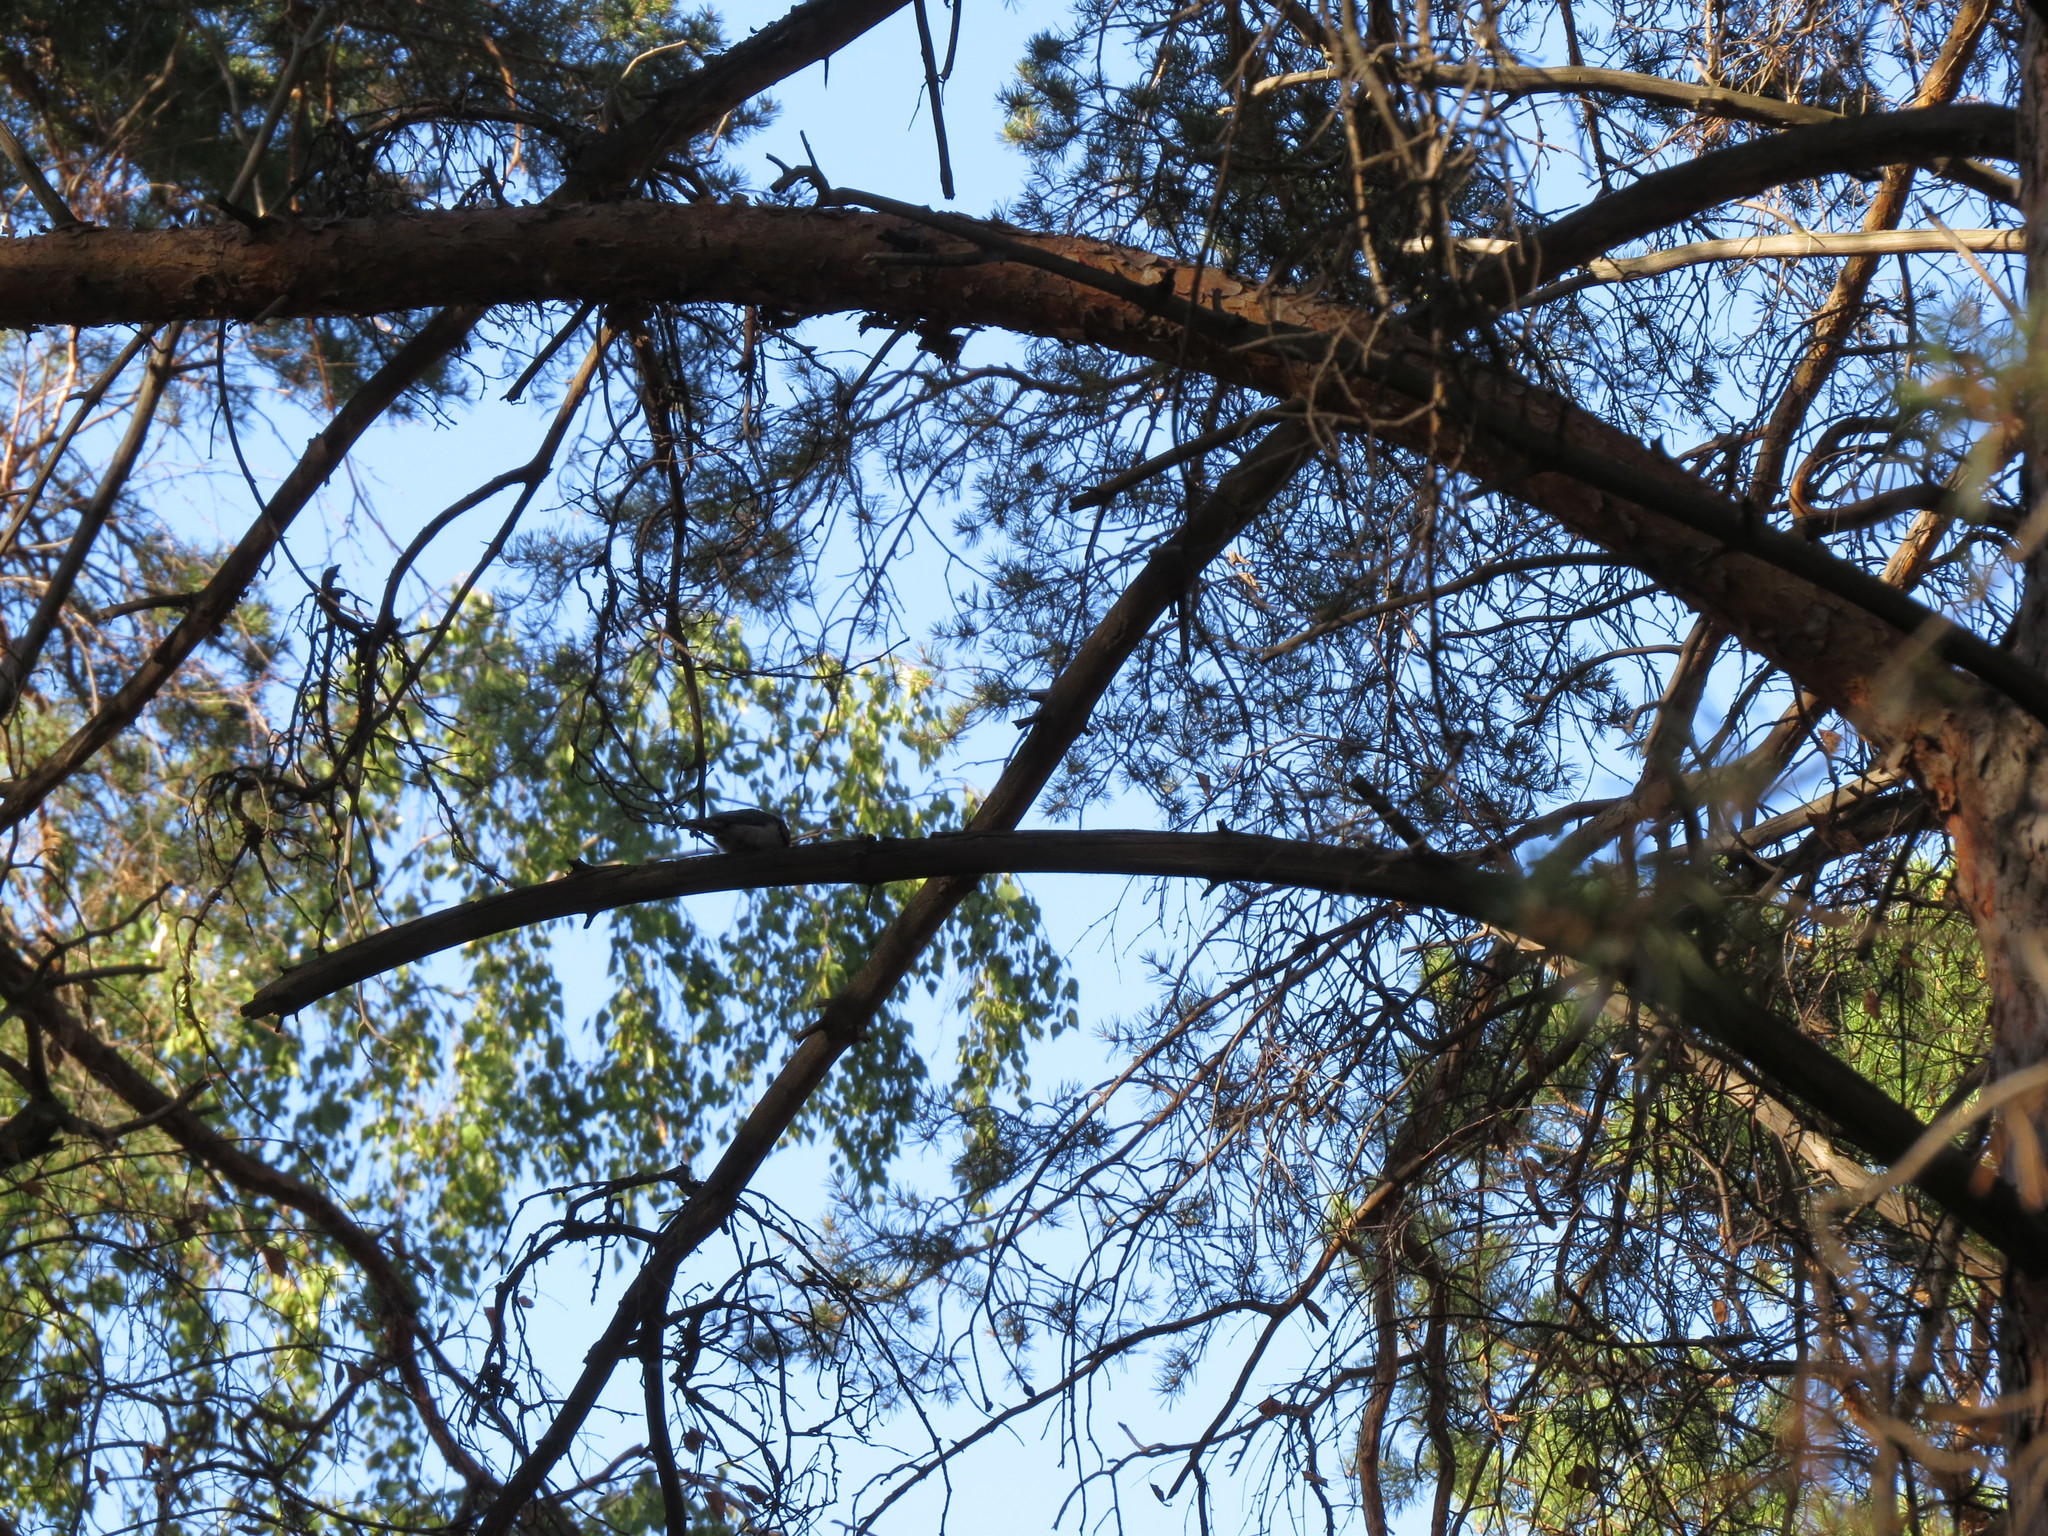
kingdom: Animalia
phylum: Chordata
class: Aves
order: Passeriformes
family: Sittidae
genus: Sitta
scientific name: Sitta europaea
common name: Eurasian nuthatch
